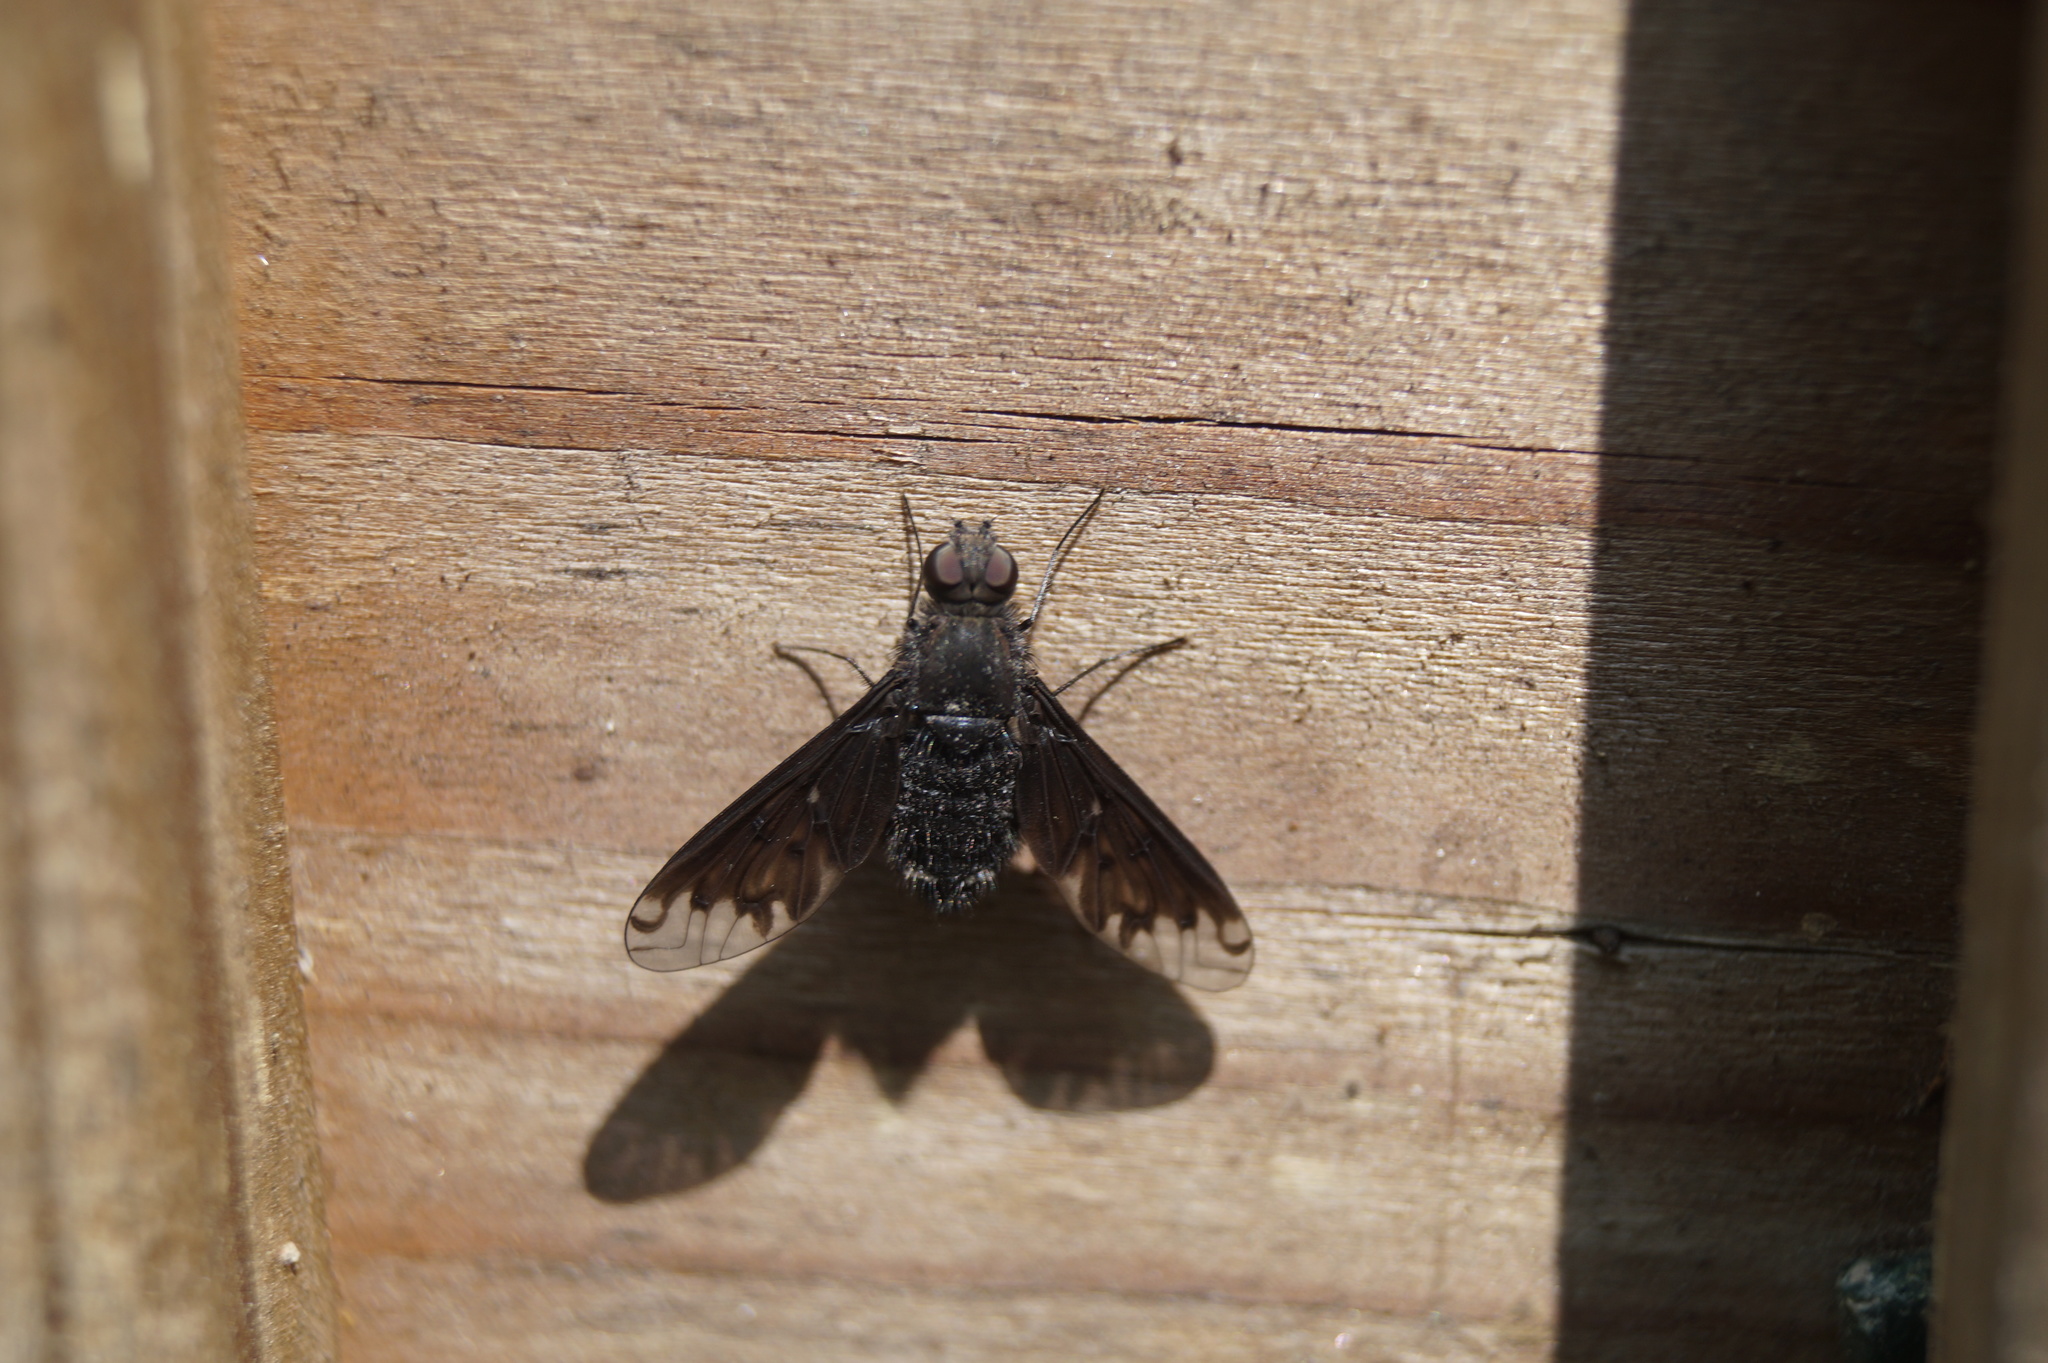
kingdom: Animalia
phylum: Arthropoda
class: Insecta
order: Diptera
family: Bombyliidae
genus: Anthrax
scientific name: Anthrax anthrax
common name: Anthracite bee-fly
